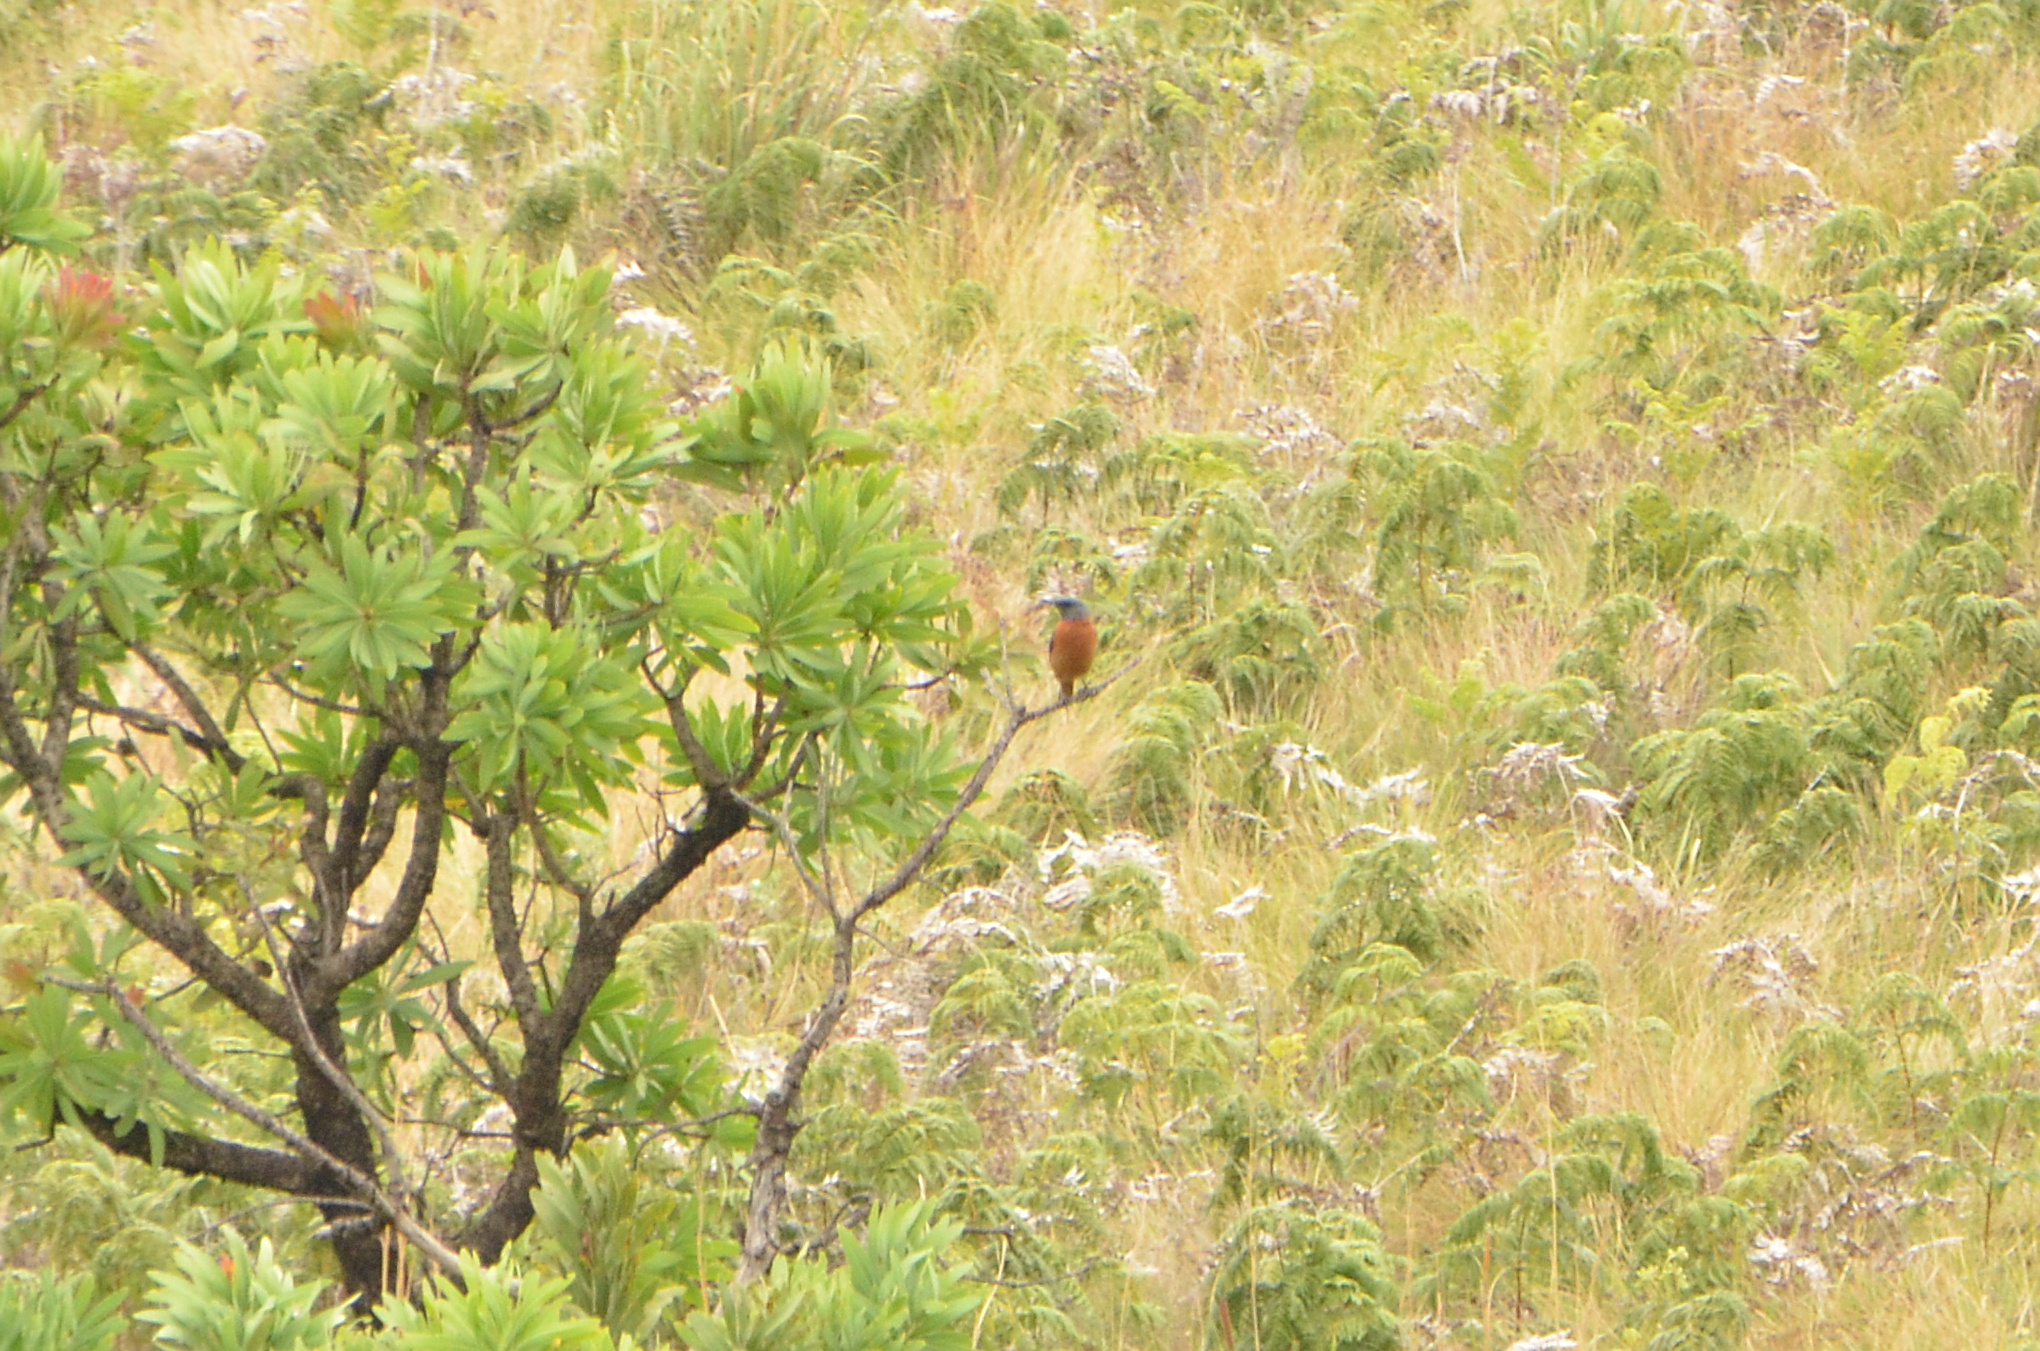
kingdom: Animalia
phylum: Chordata
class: Aves
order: Passeriformes
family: Muscicapidae
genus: Monticola
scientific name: Monticola rupestris
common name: Cape rock thrush
